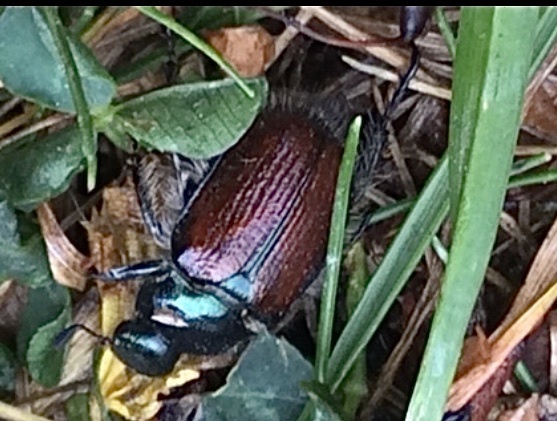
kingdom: Animalia
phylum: Arthropoda
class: Insecta
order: Coleoptera
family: Scarabaeidae
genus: Phyllopertha
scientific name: Phyllopertha horticola
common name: Garden chafer
